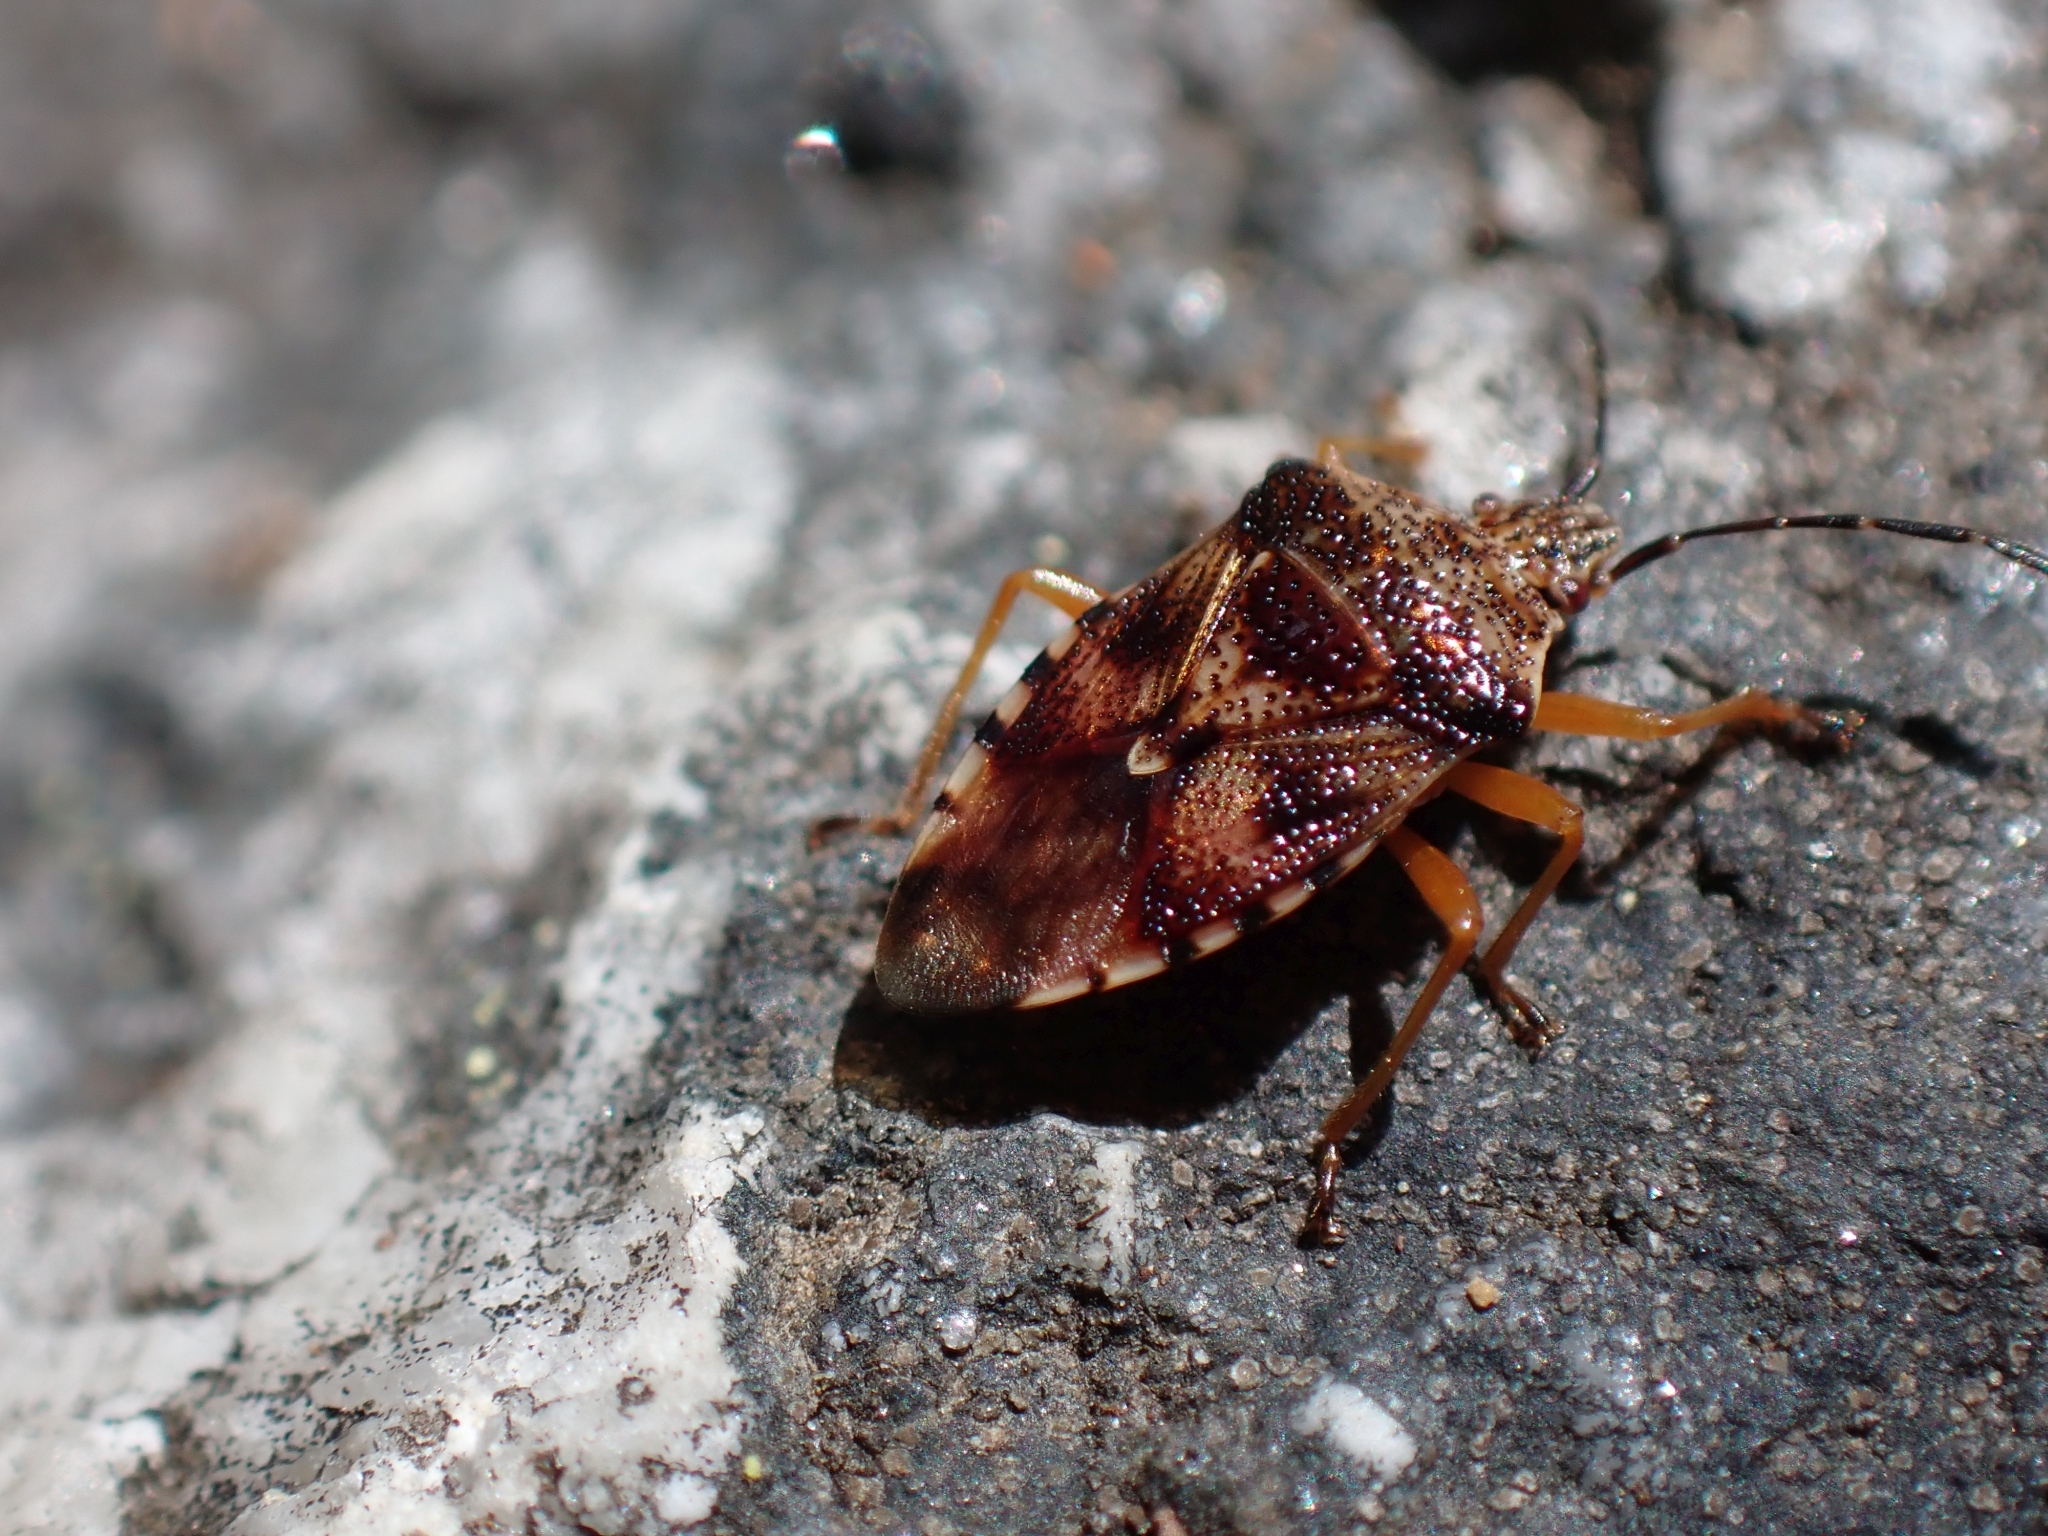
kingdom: Animalia
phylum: Arthropoda
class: Insecta
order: Hemiptera
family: Acanthosomatidae
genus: Elasmucha
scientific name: Elasmucha lateralis
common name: Shield bug
